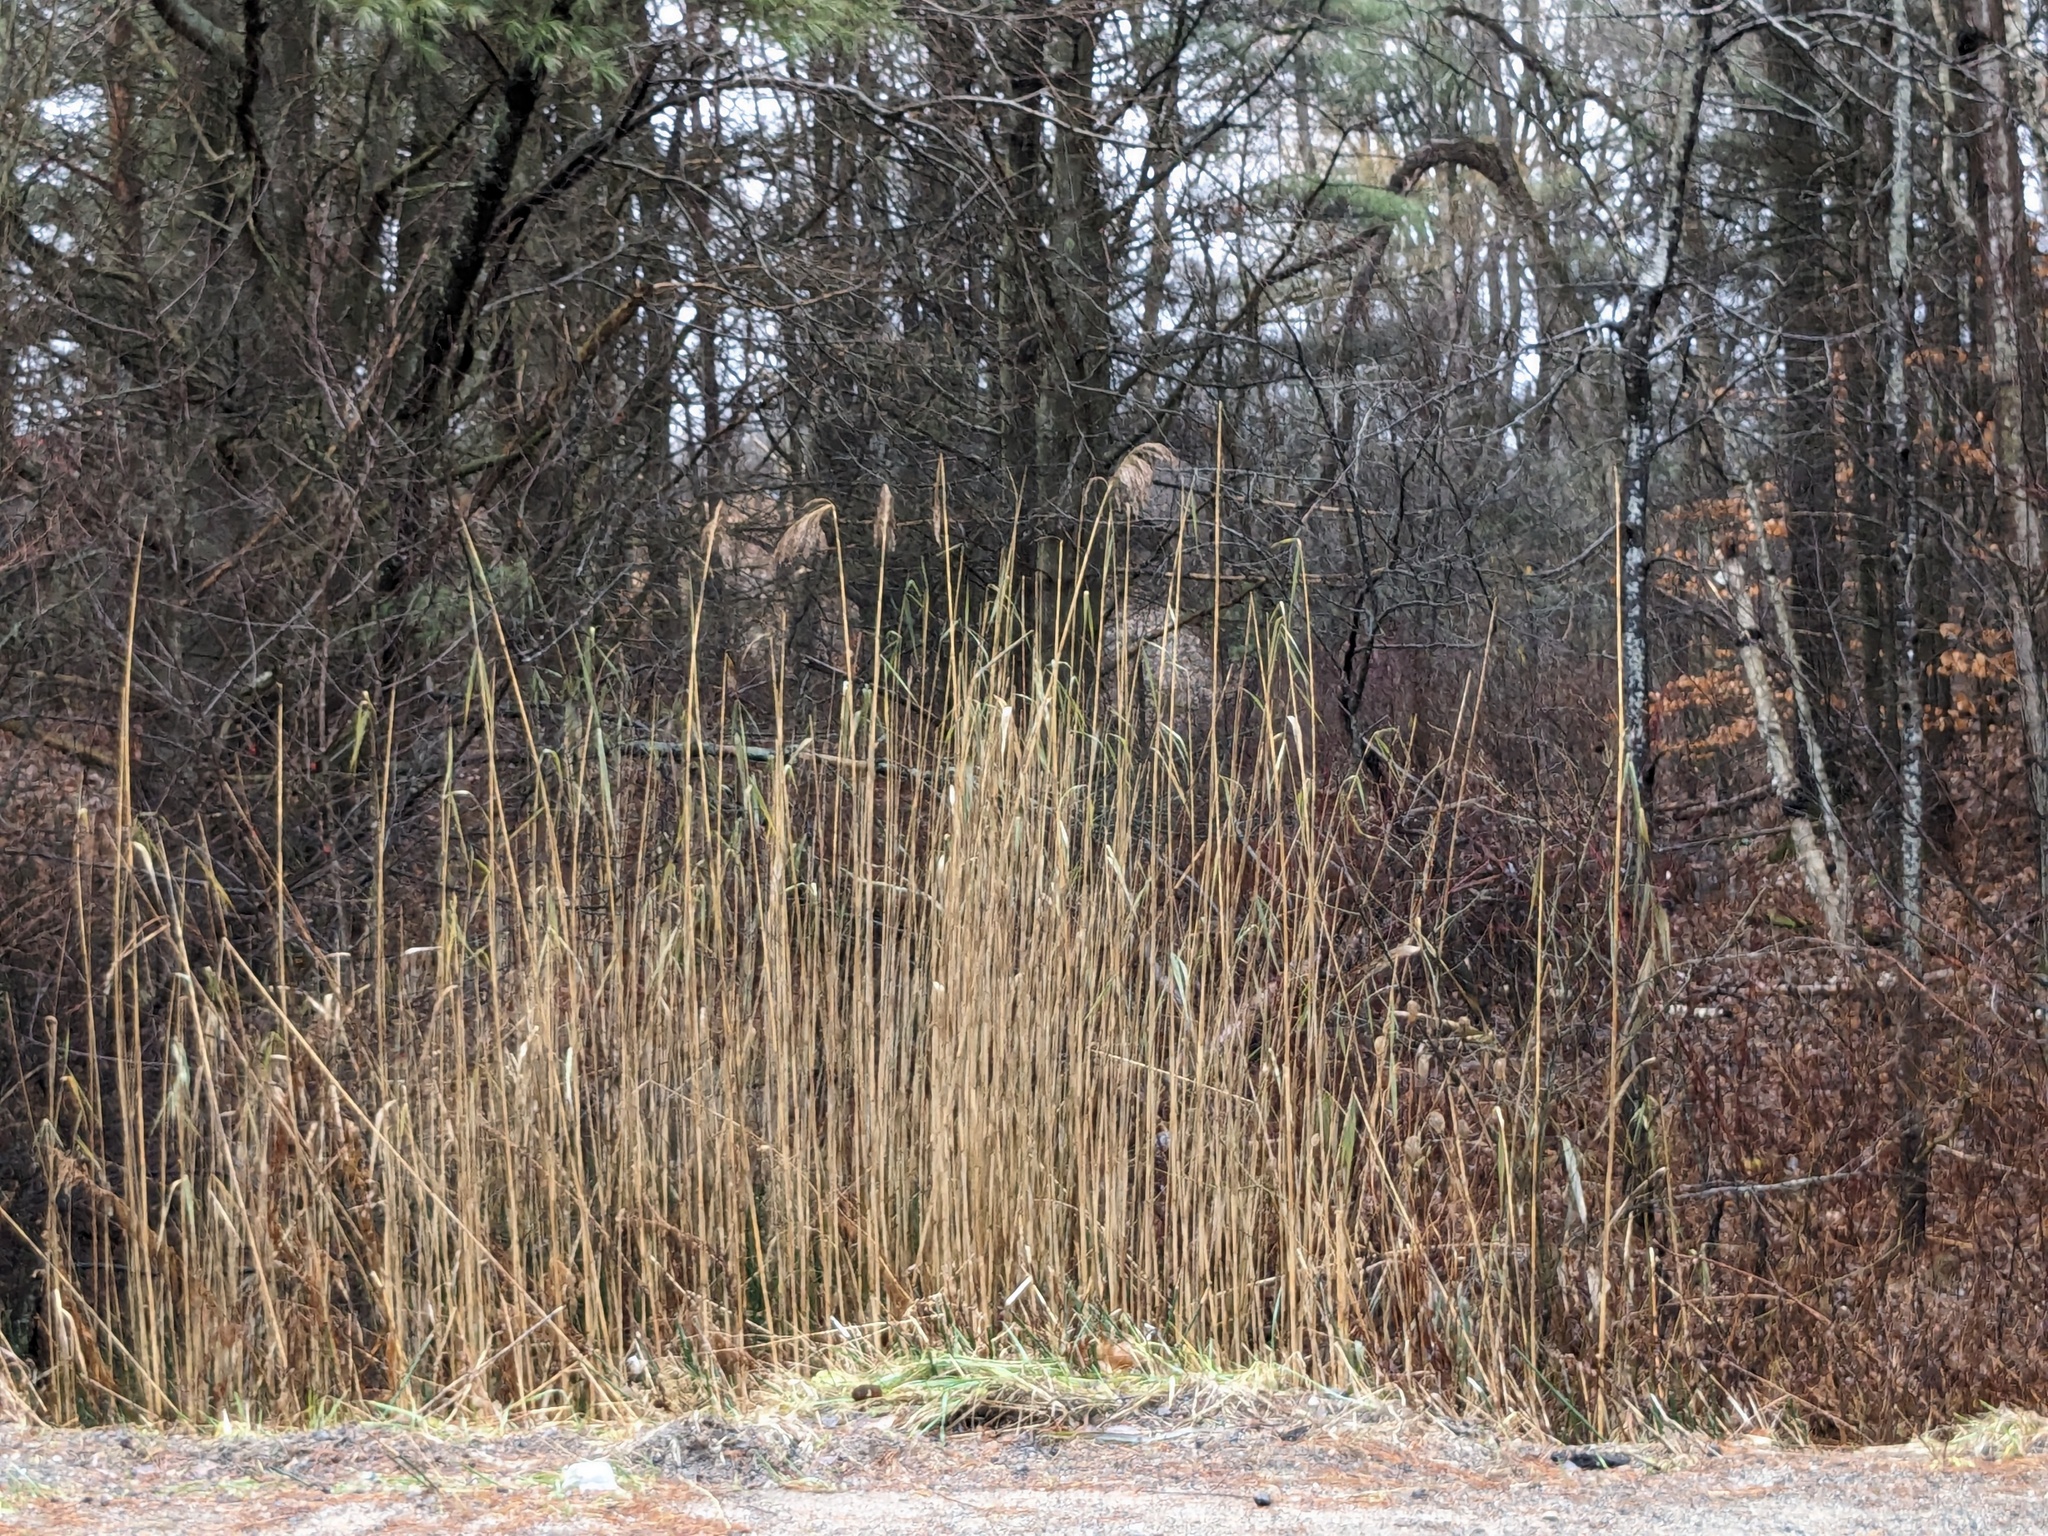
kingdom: Plantae
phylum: Tracheophyta
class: Liliopsida
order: Poales
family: Poaceae
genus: Phragmites
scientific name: Phragmites australis
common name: Common reed
